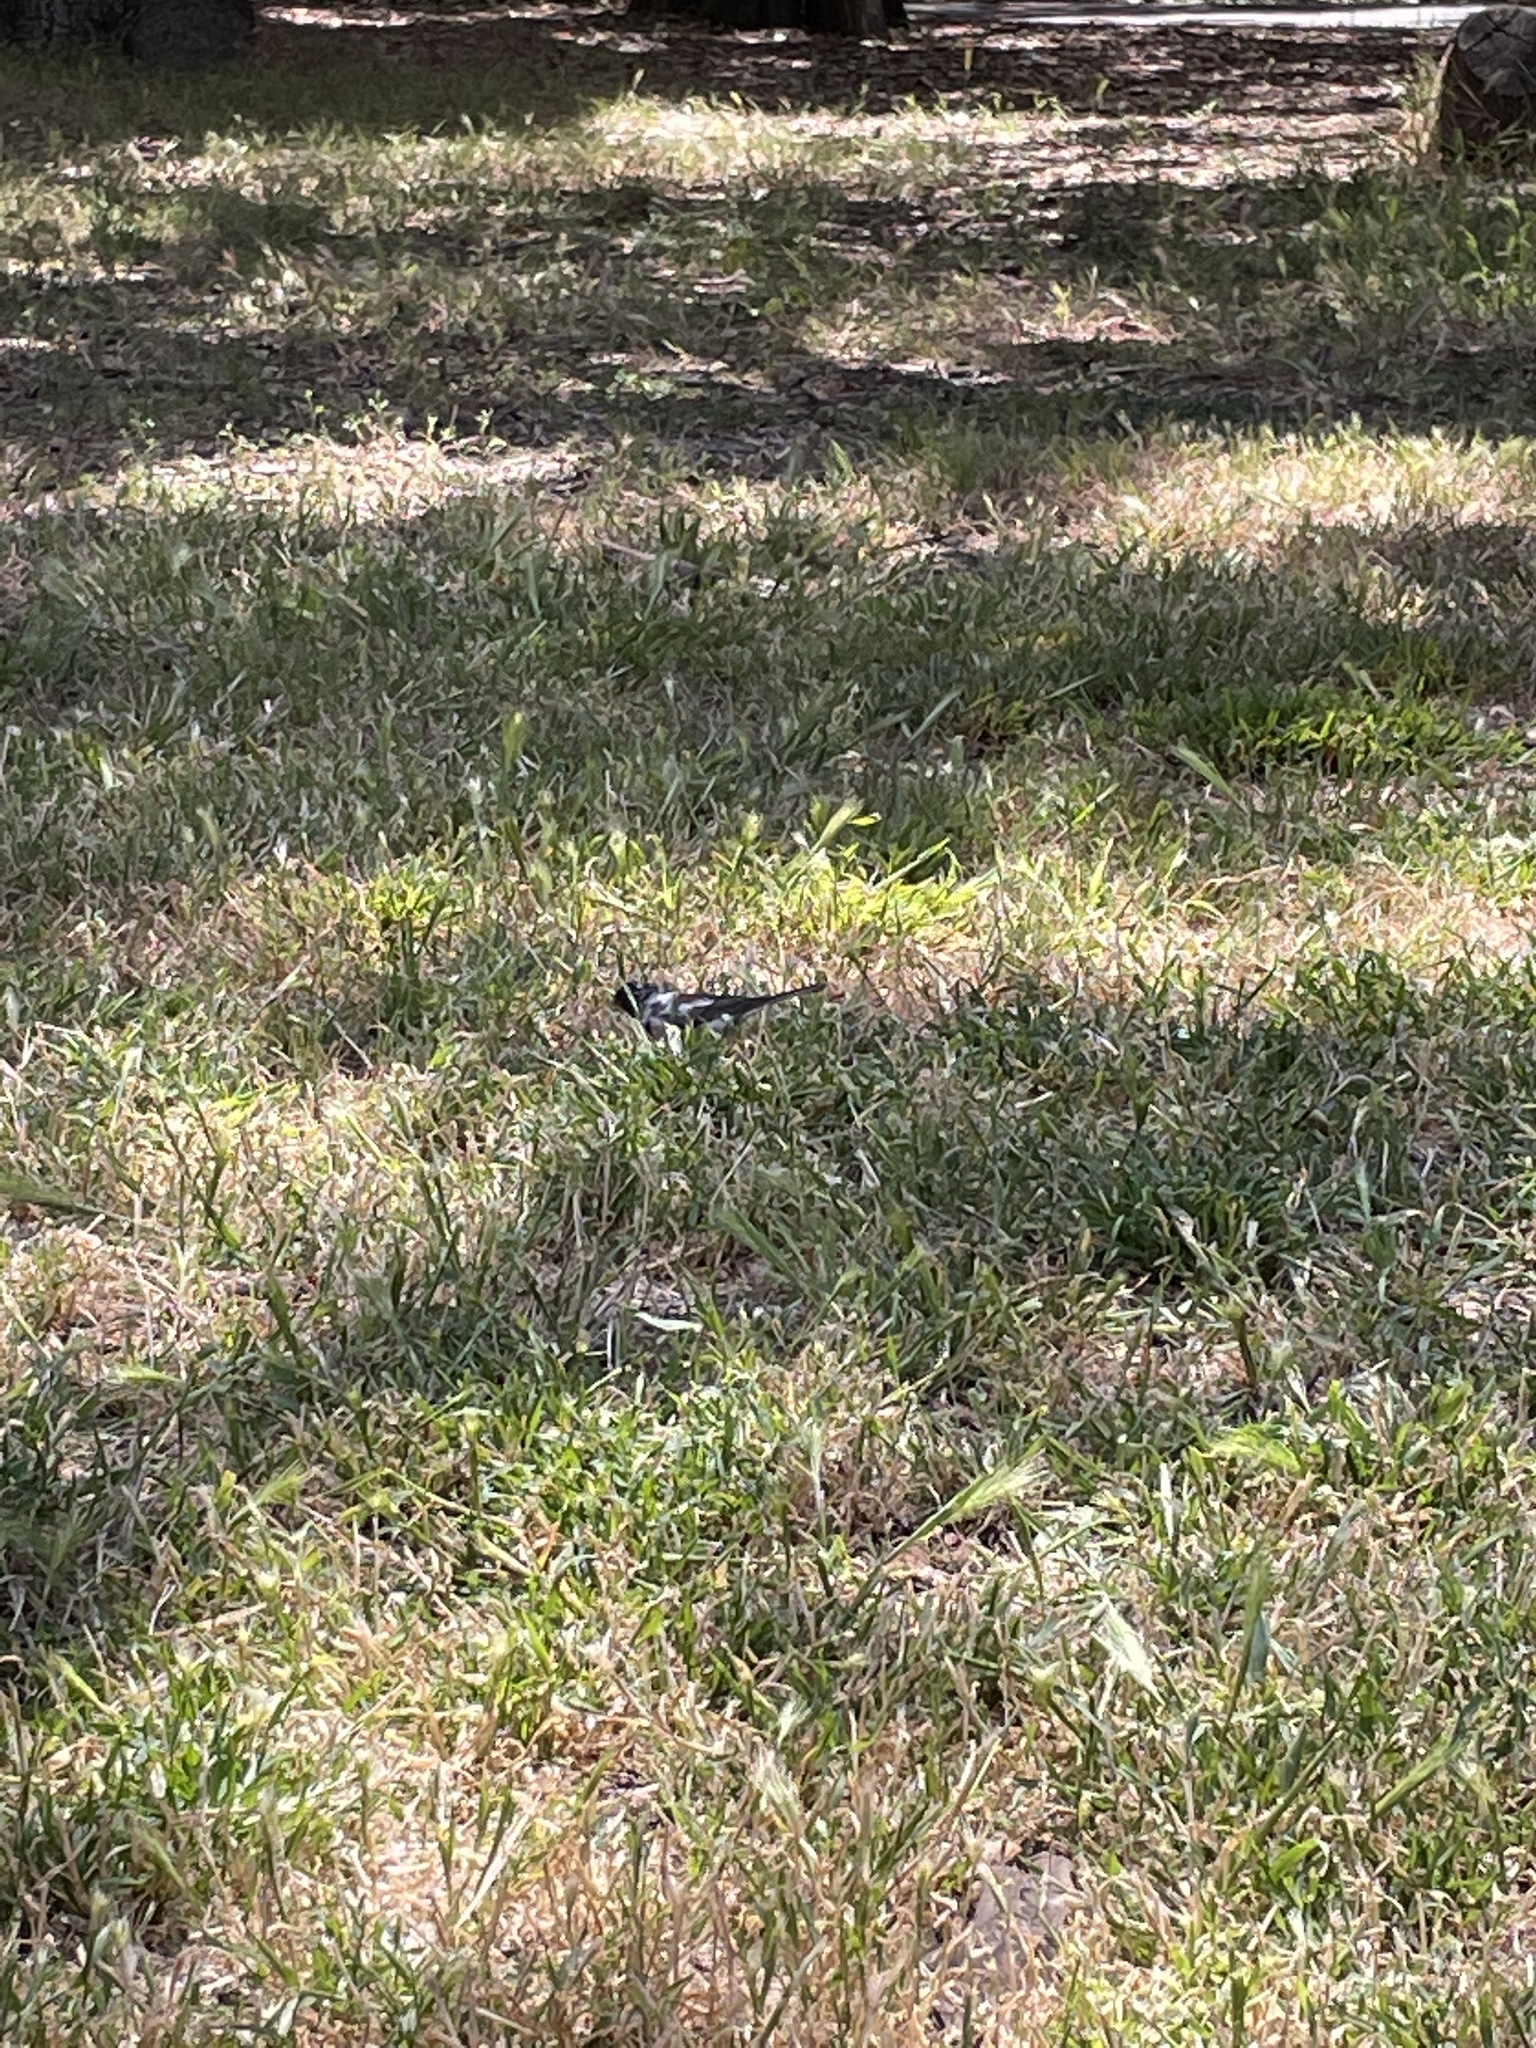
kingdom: Animalia
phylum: Chordata
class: Aves
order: Passeriformes
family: Passerellidae
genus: Junco
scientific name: Junco hyemalis
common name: Dark-eyed junco
